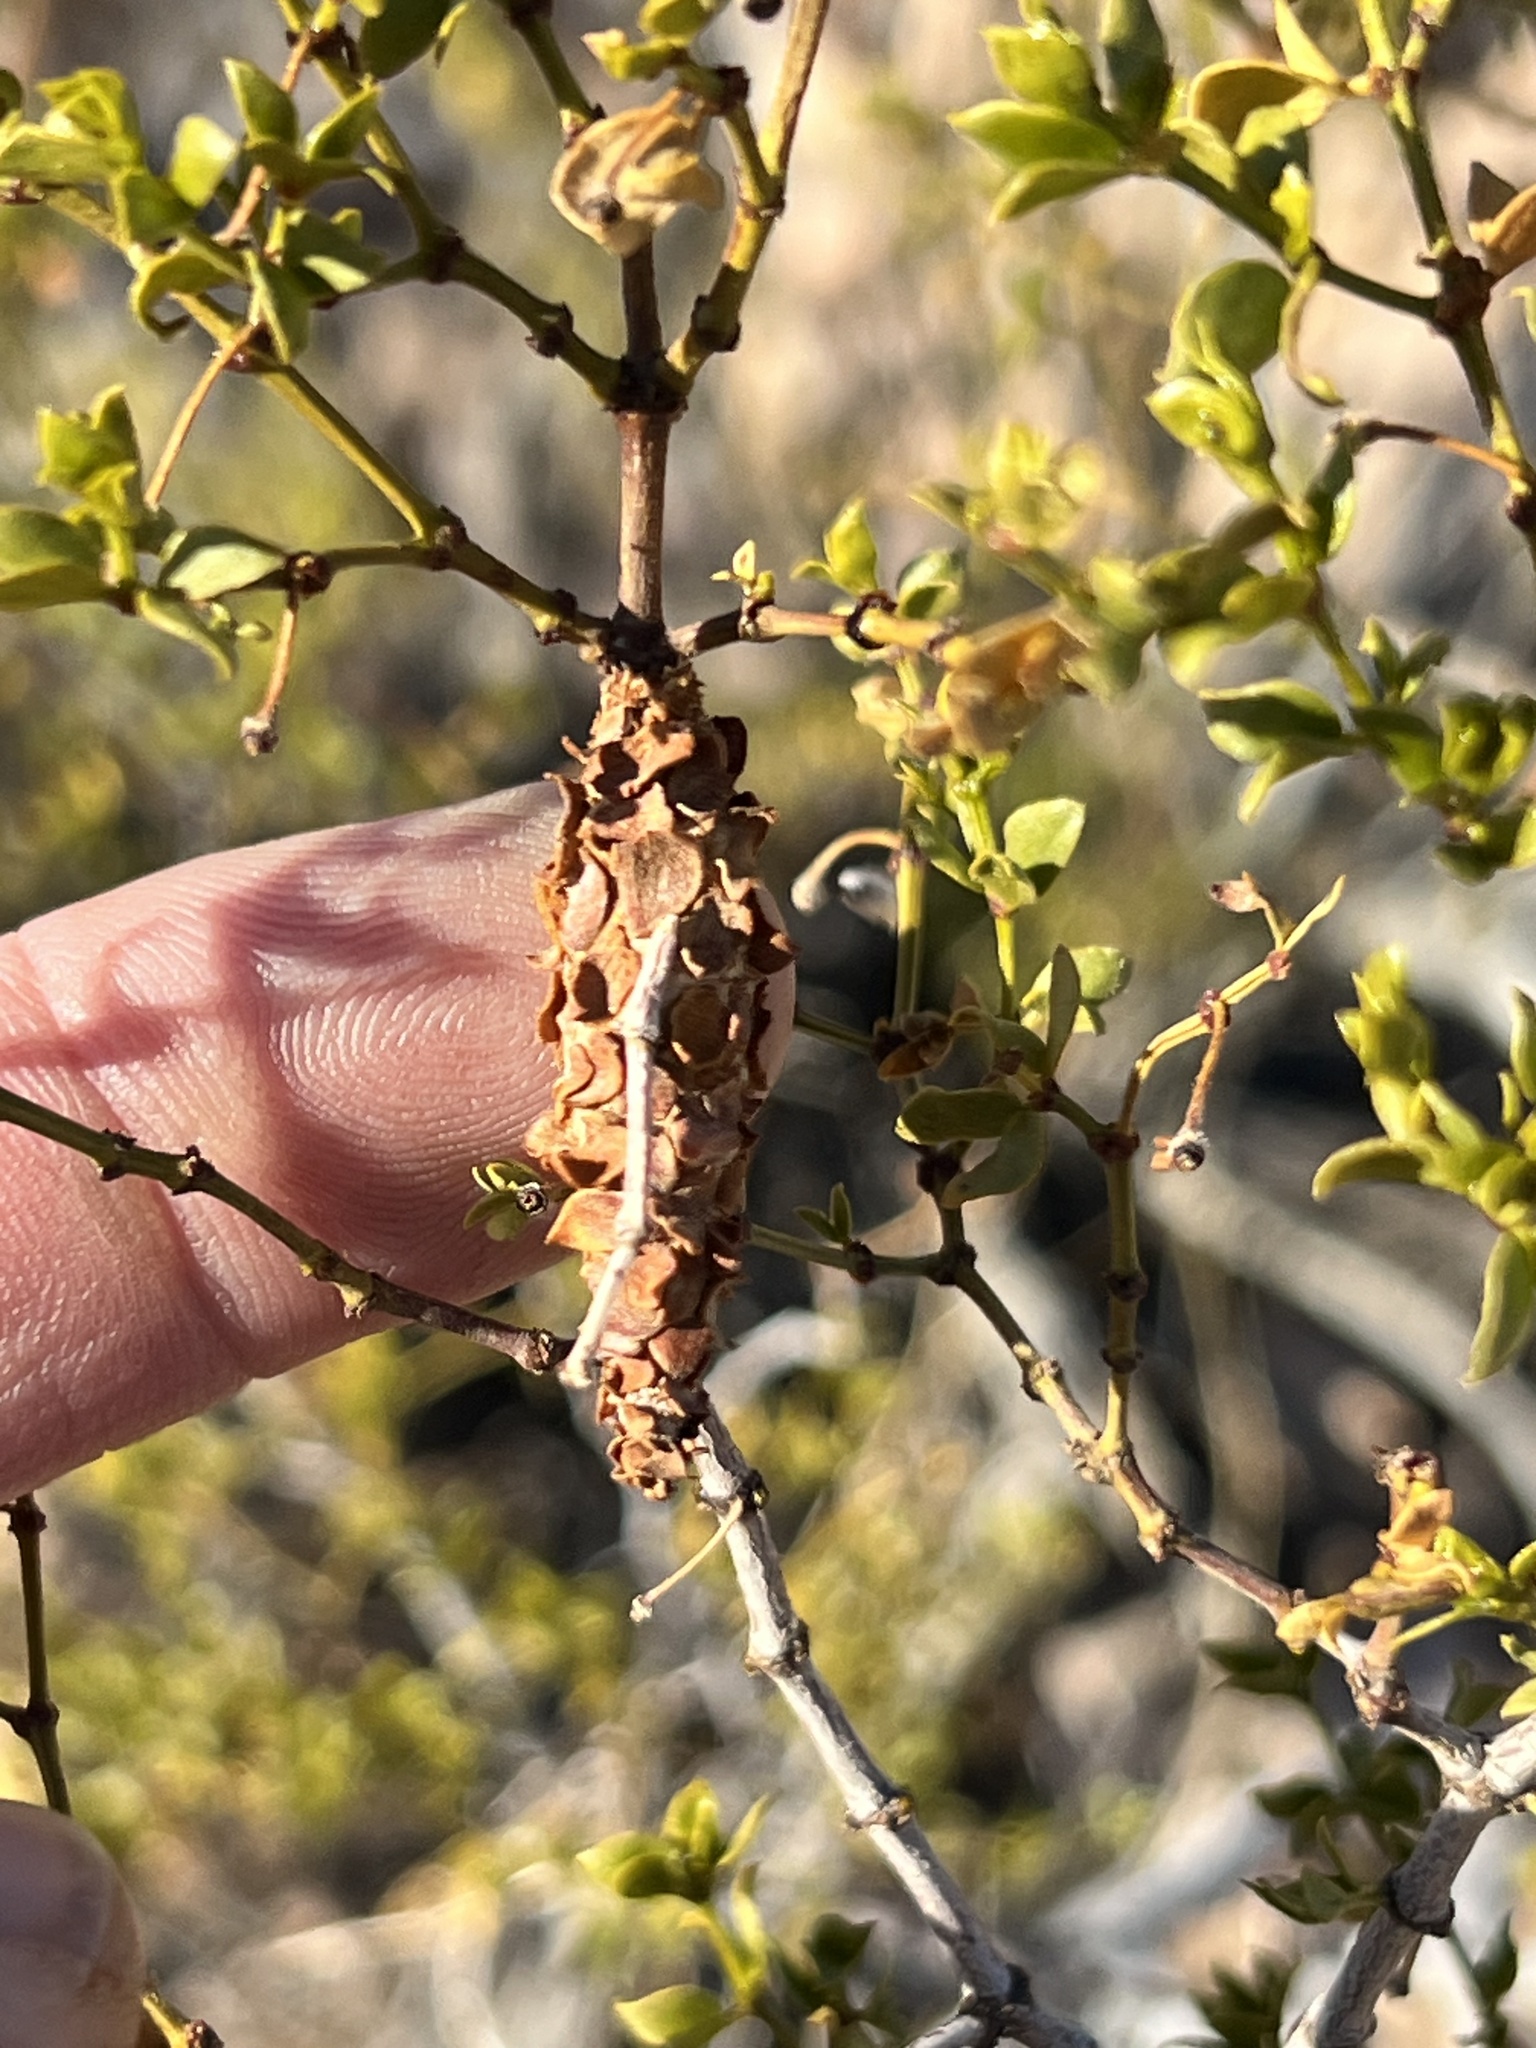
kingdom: Animalia
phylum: Arthropoda
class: Insecta
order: Lepidoptera
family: Psychidae
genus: Thyridopteryx
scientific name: Thyridopteryx meadii
